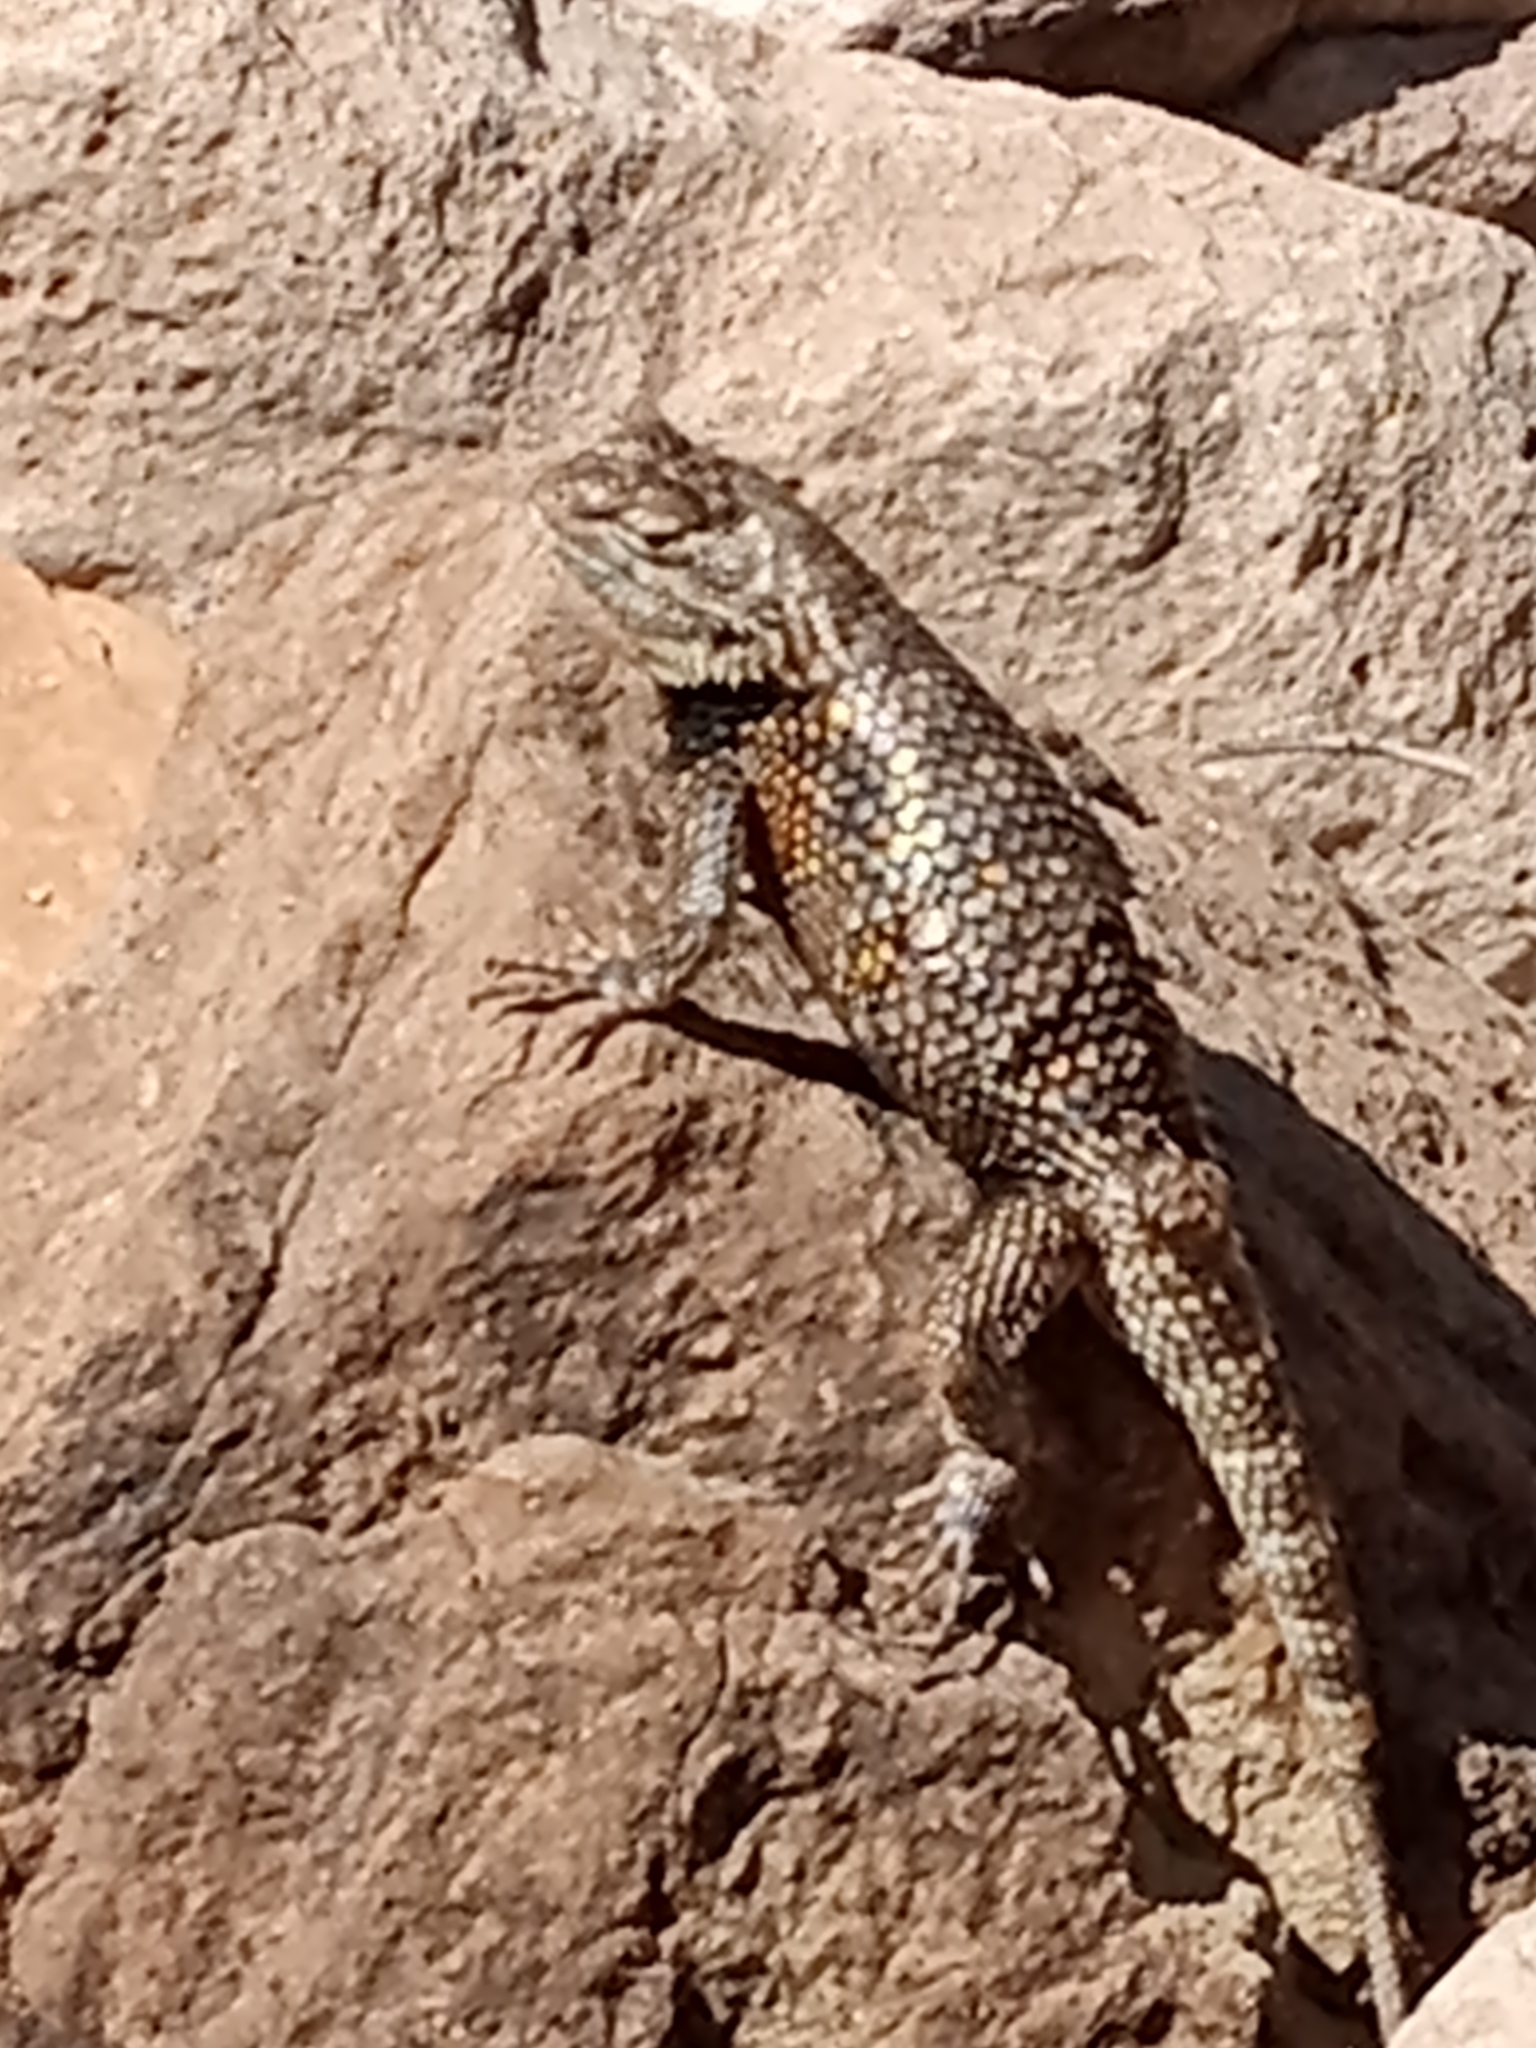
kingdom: Animalia
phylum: Chordata
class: Squamata
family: Phrynosomatidae
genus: Sceloporus
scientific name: Sceloporus magister
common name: Desert spiny lizard
